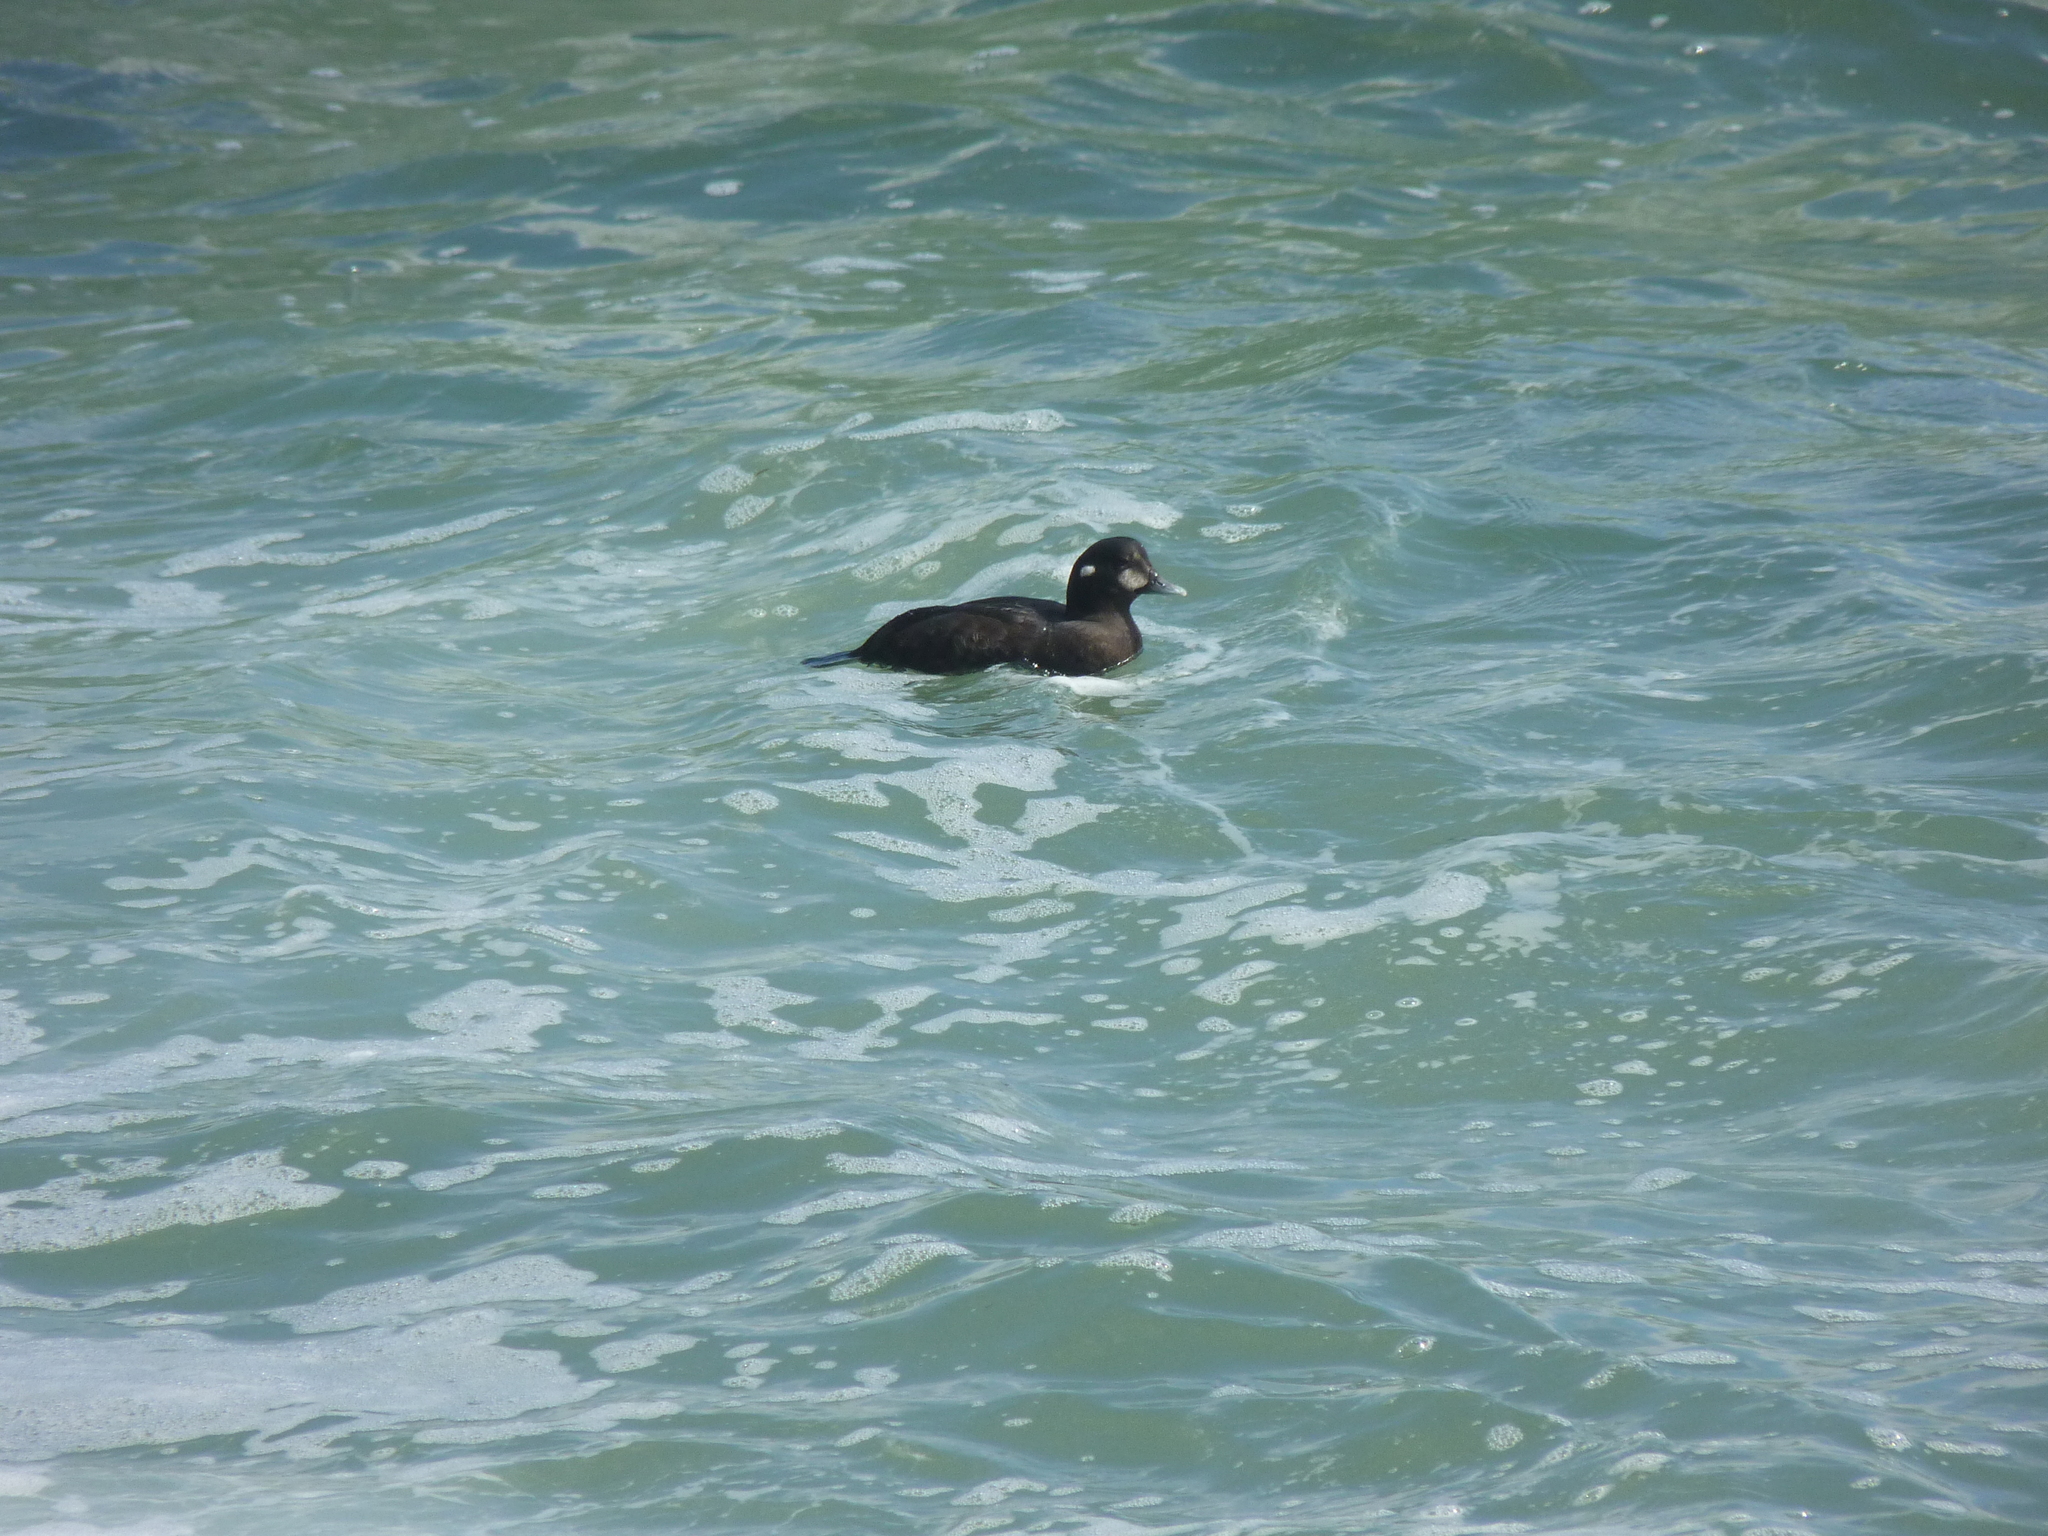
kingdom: Animalia
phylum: Chordata
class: Aves
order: Anseriformes
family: Anatidae
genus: Histrionicus
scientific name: Histrionicus histrionicus
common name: Harlequin duck
